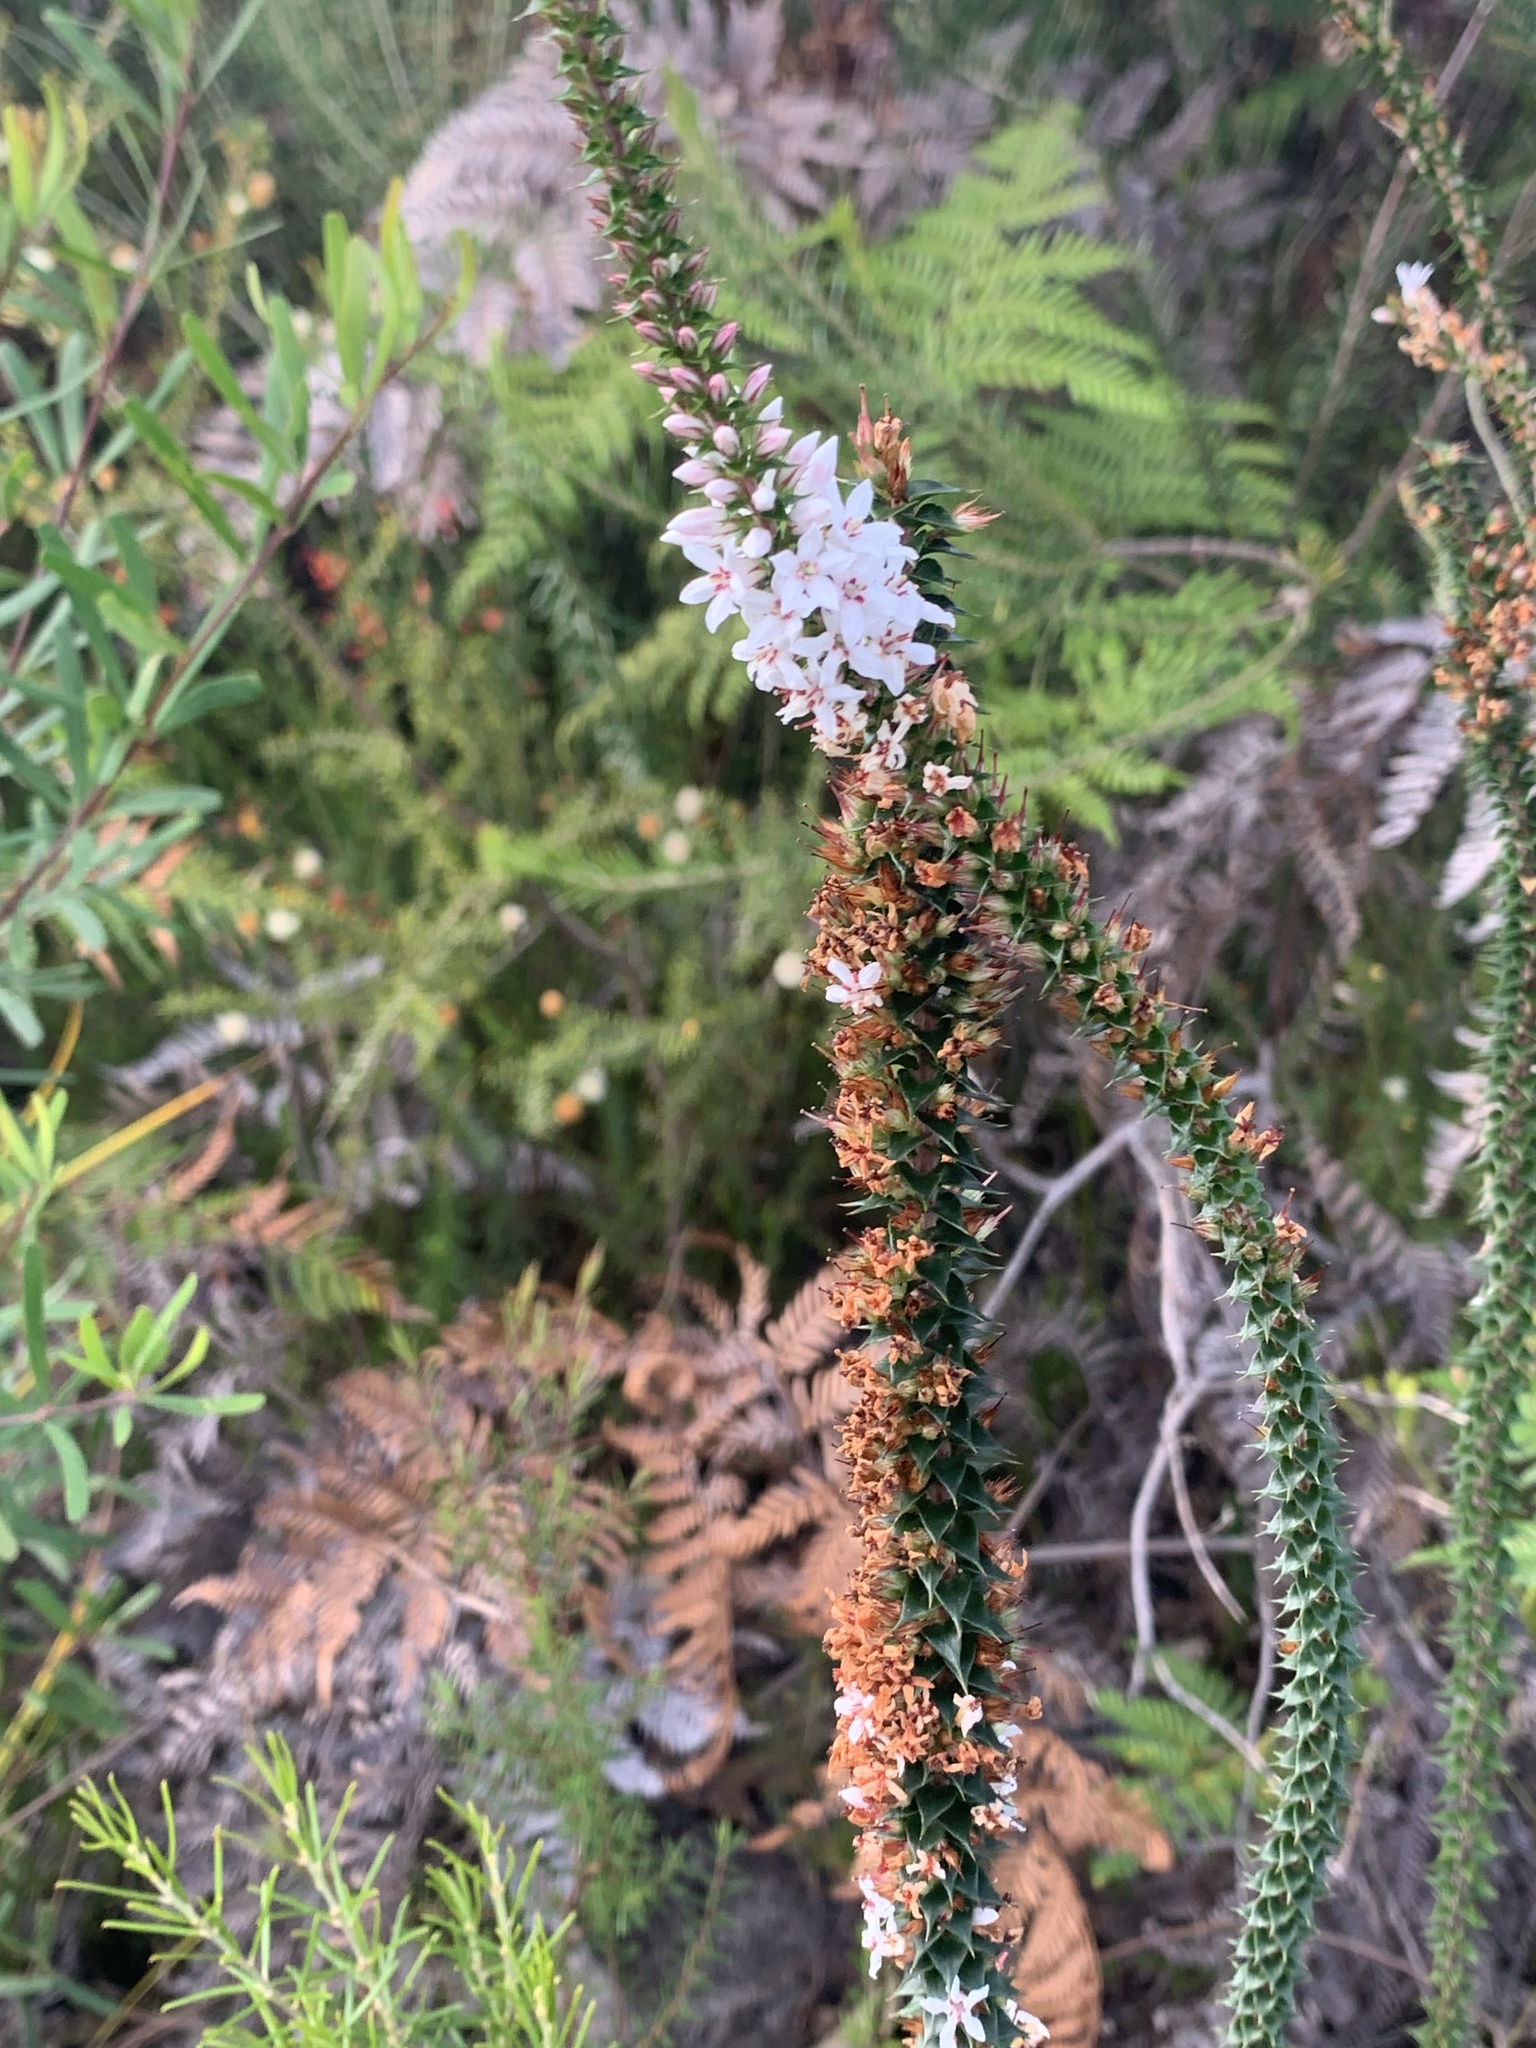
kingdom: Plantae
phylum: Tracheophyta
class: Magnoliopsida
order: Ericales
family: Ericaceae
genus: Epacris
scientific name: Epacris pulchella
